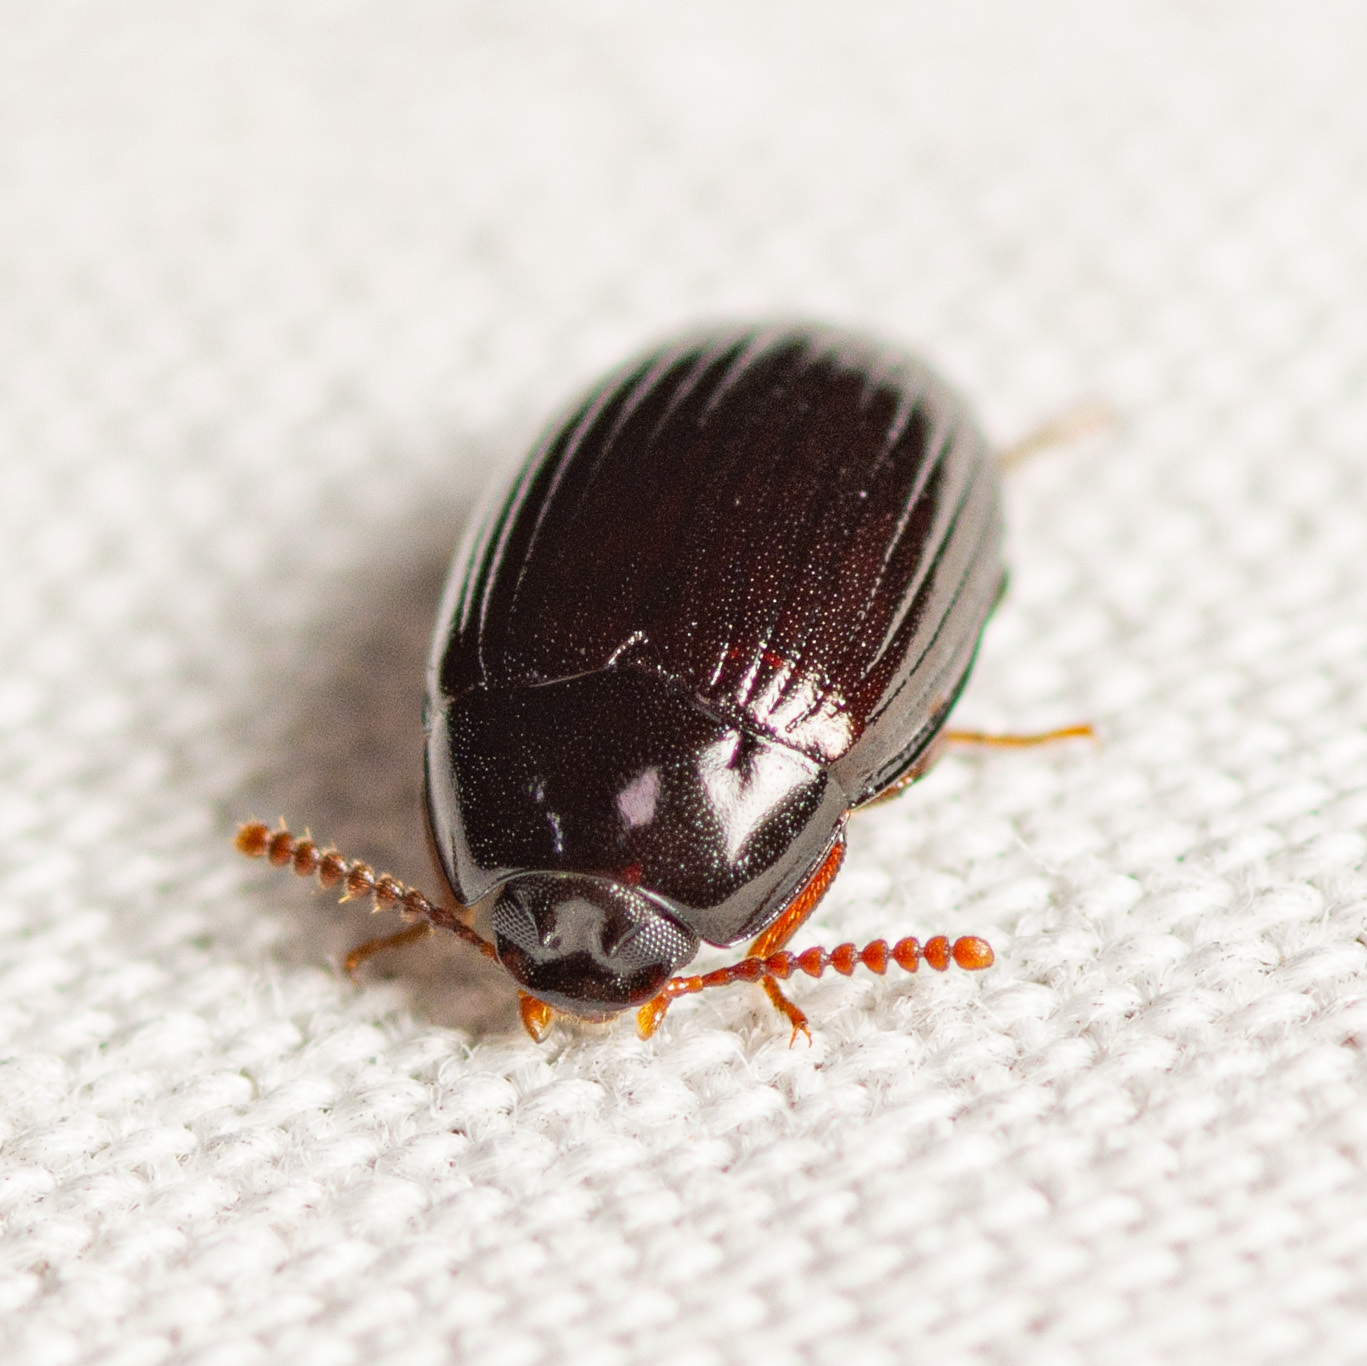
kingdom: Animalia
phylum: Arthropoda
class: Insecta
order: Coleoptera
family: Tenebrionidae
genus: Platydema
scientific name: Platydema excavata
